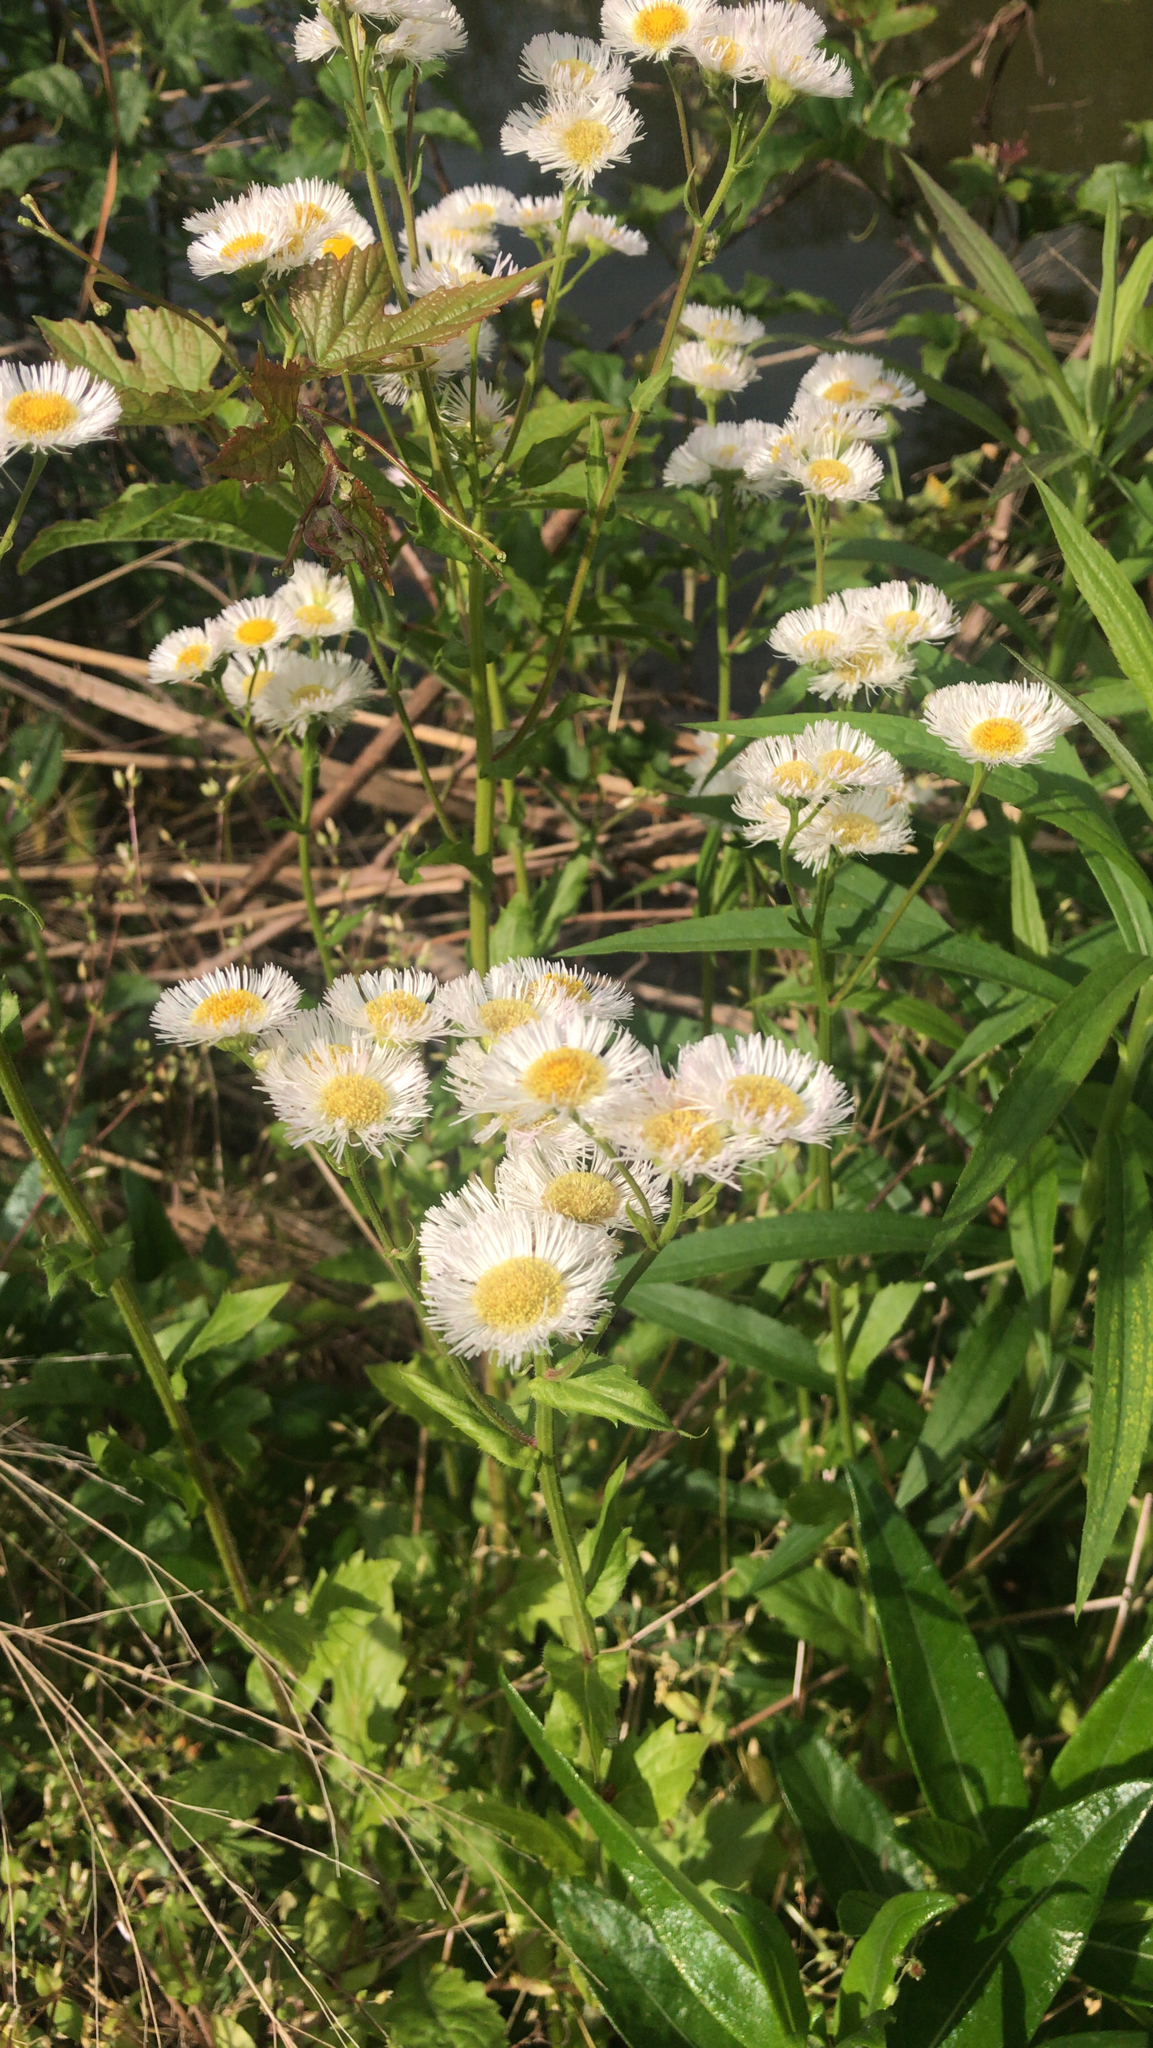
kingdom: Plantae
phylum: Tracheophyta
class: Magnoliopsida
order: Asterales
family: Asteraceae
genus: Erigeron
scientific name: Erigeron philadelphicus
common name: Robin's-plantain
